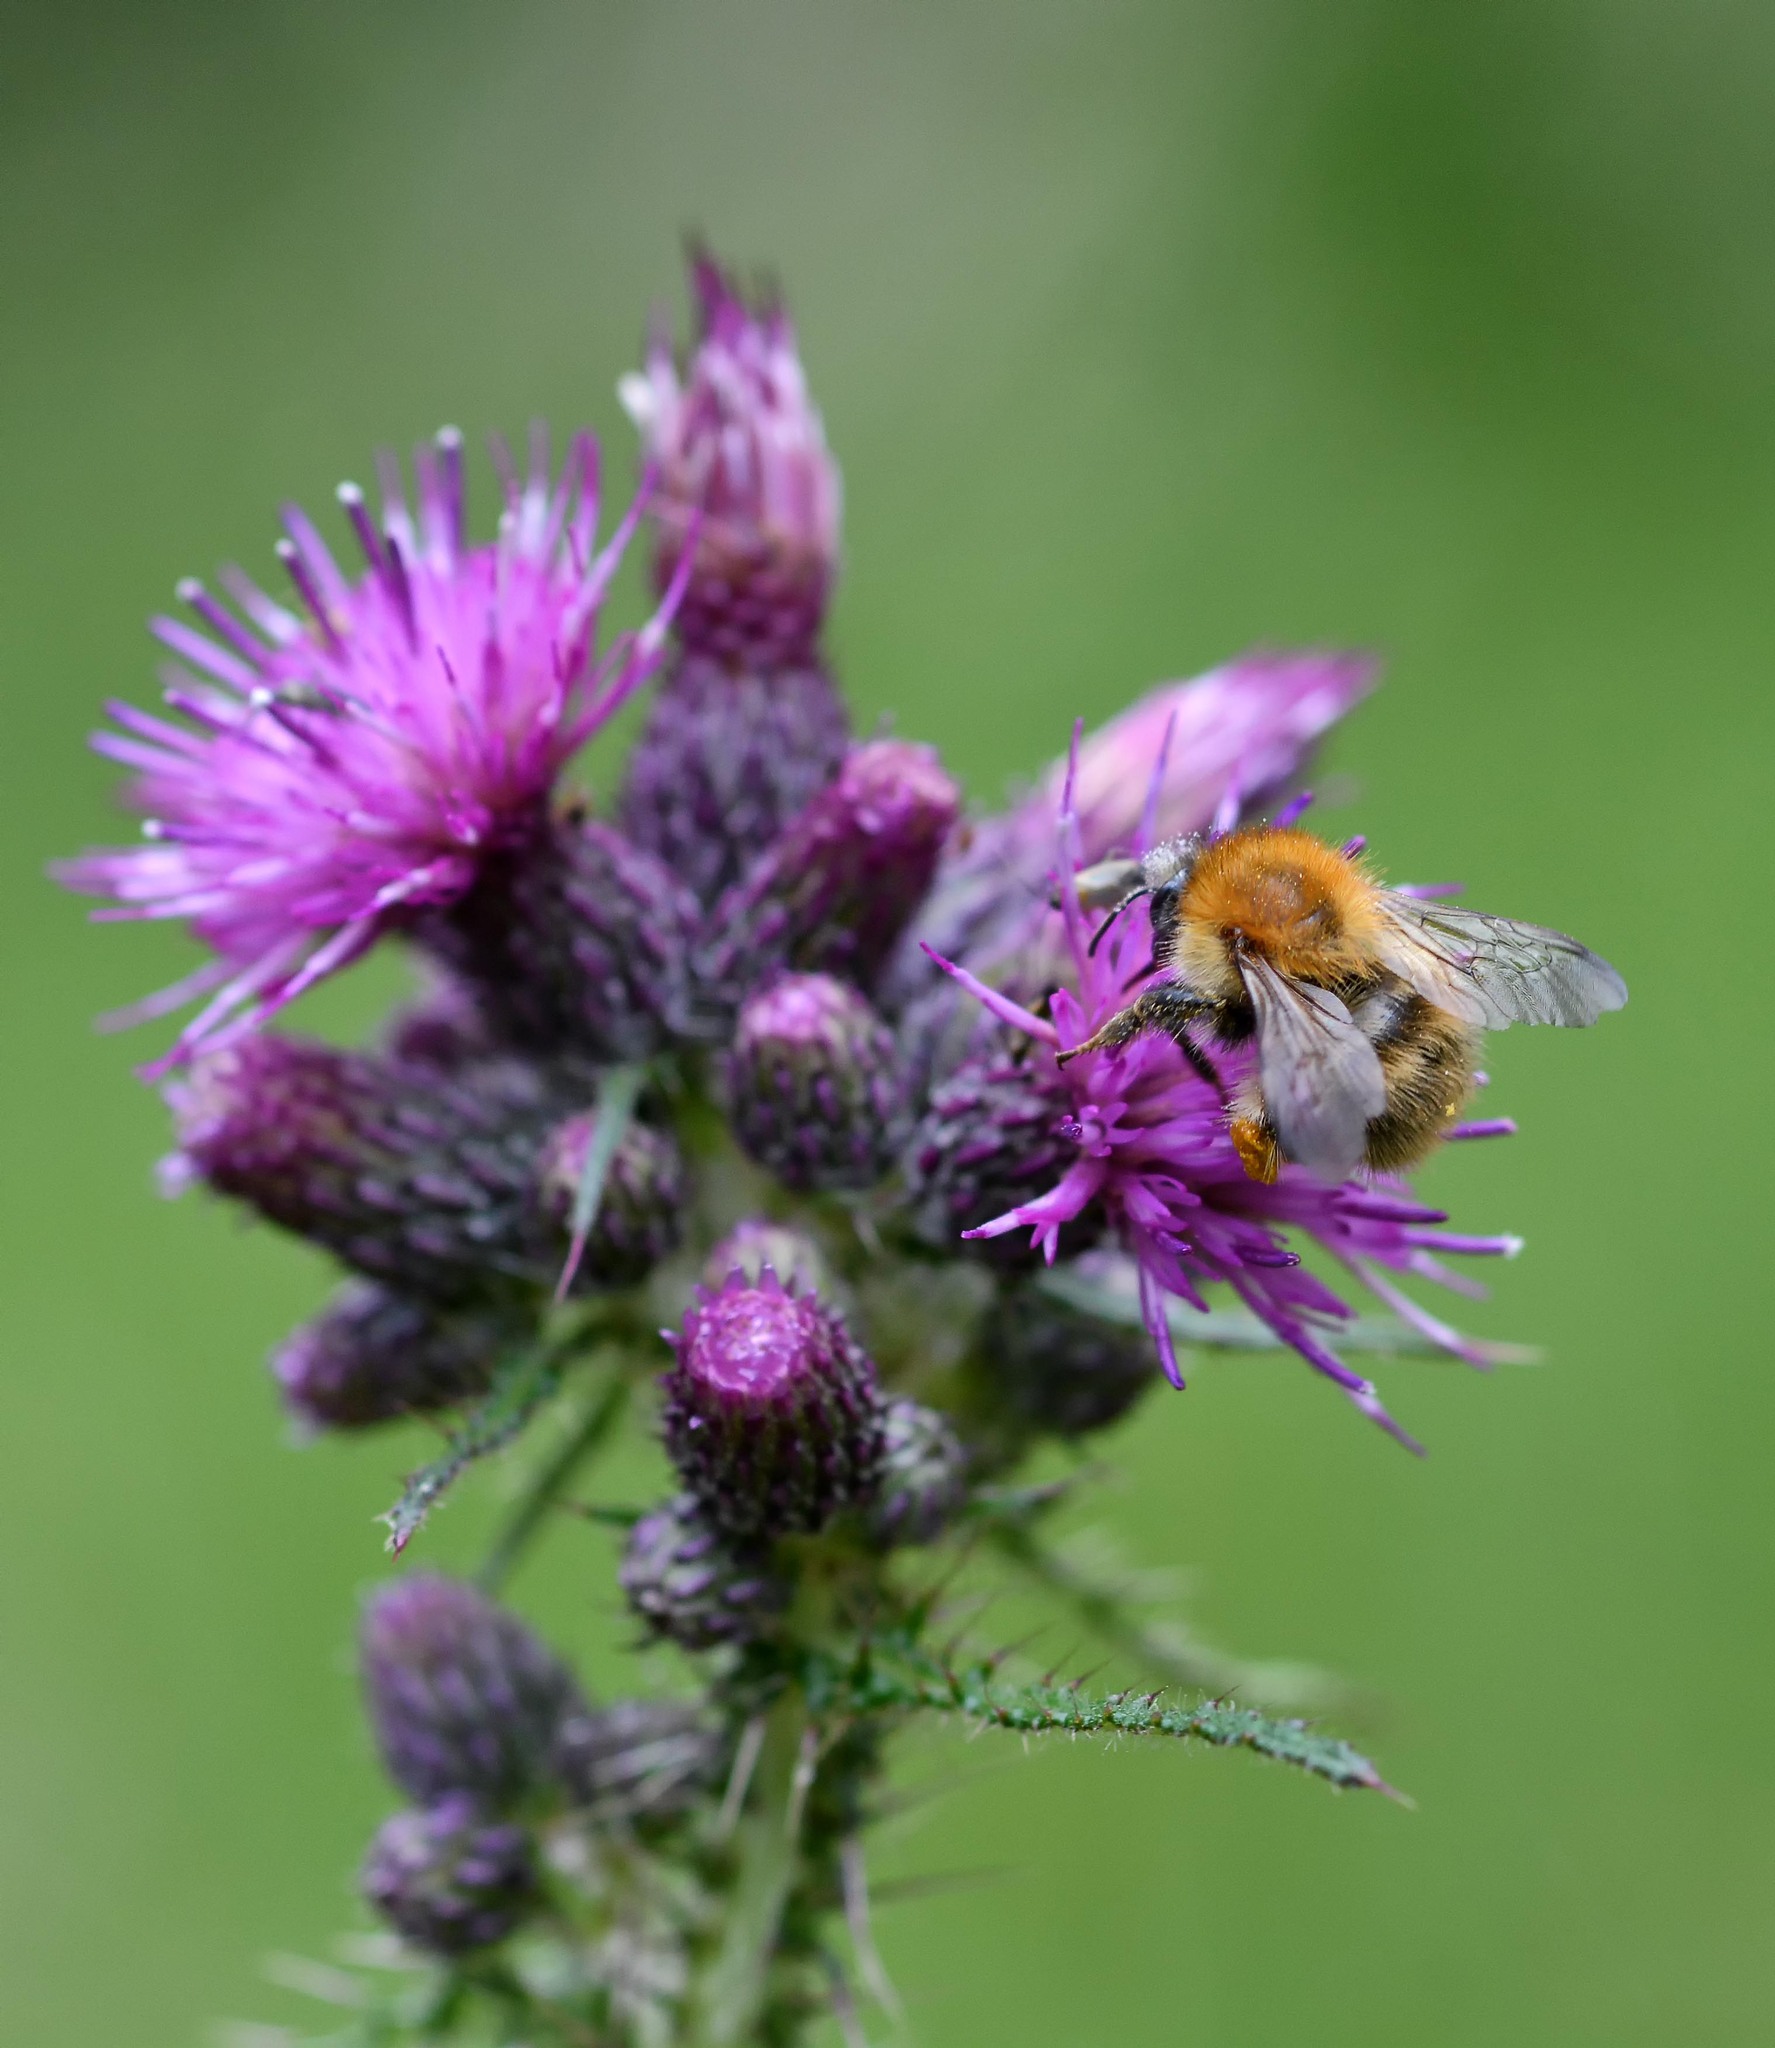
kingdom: Animalia
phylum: Arthropoda
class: Insecta
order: Hymenoptera
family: Apidae
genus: Bombus
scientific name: Bombus pascuorum
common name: Common carder bee
